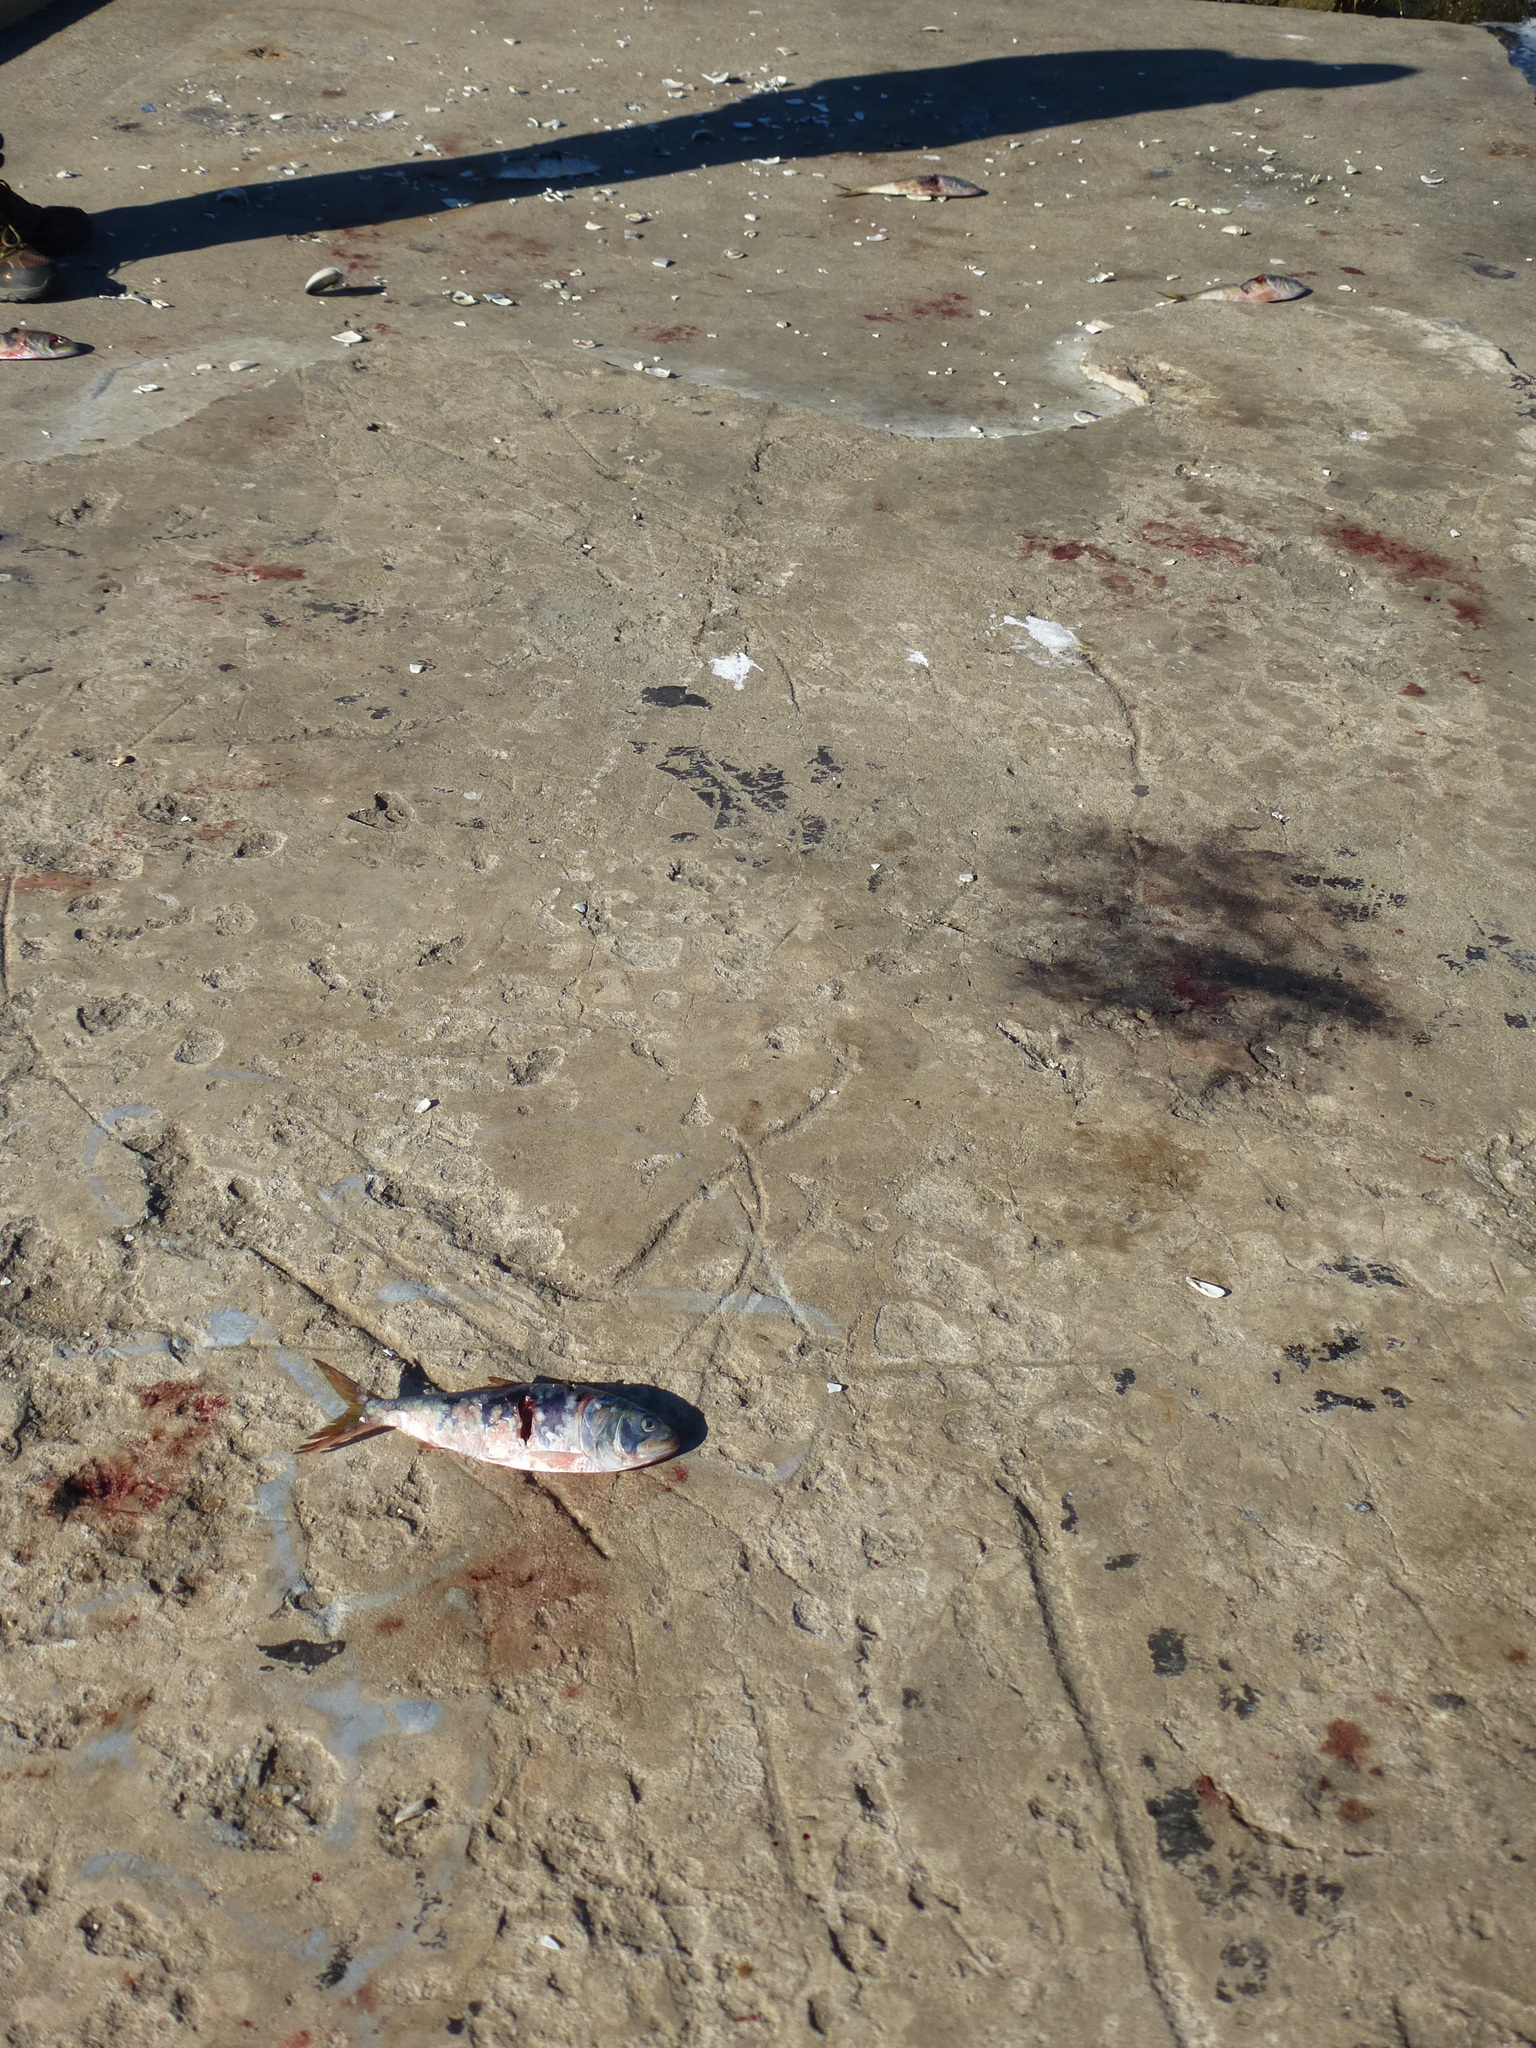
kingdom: Animalia
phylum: Chordata
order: Clupeiformes
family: Clupeidae
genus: Brevoortia
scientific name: Brevoortia tyrannus
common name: Atlantic menhaden
